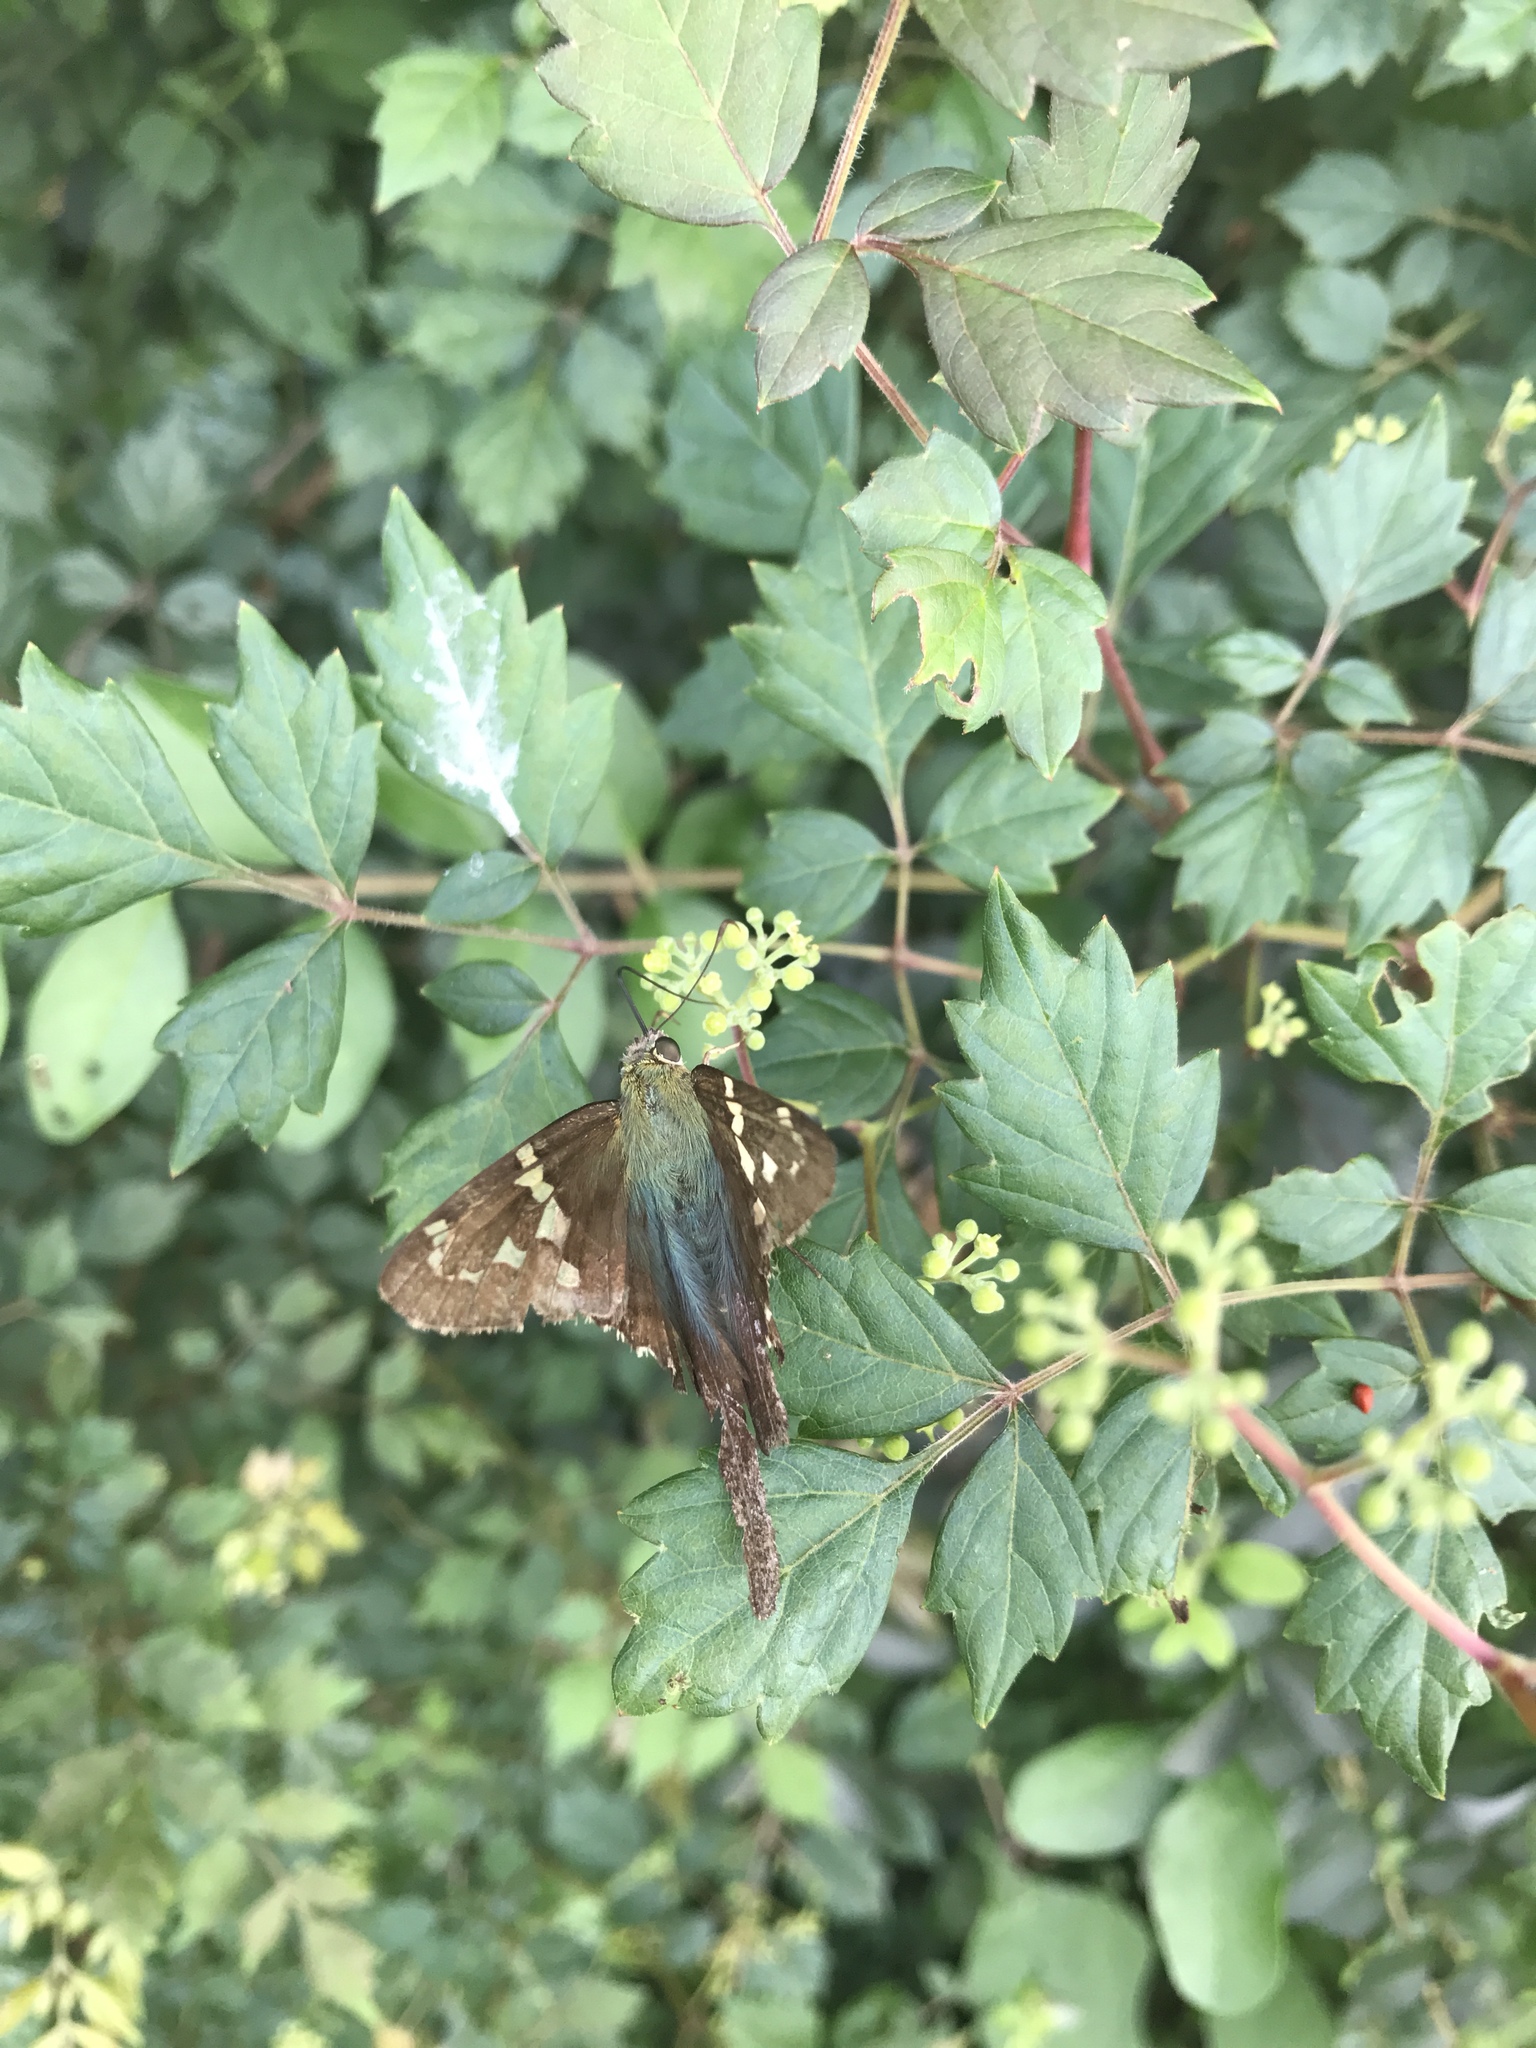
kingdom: Animalia
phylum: Arthropoda
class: Insecta
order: Lepidoptera
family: Hesperiidae
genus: Urbanus
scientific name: Urbanus proteus
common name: Long-tailed skipper
